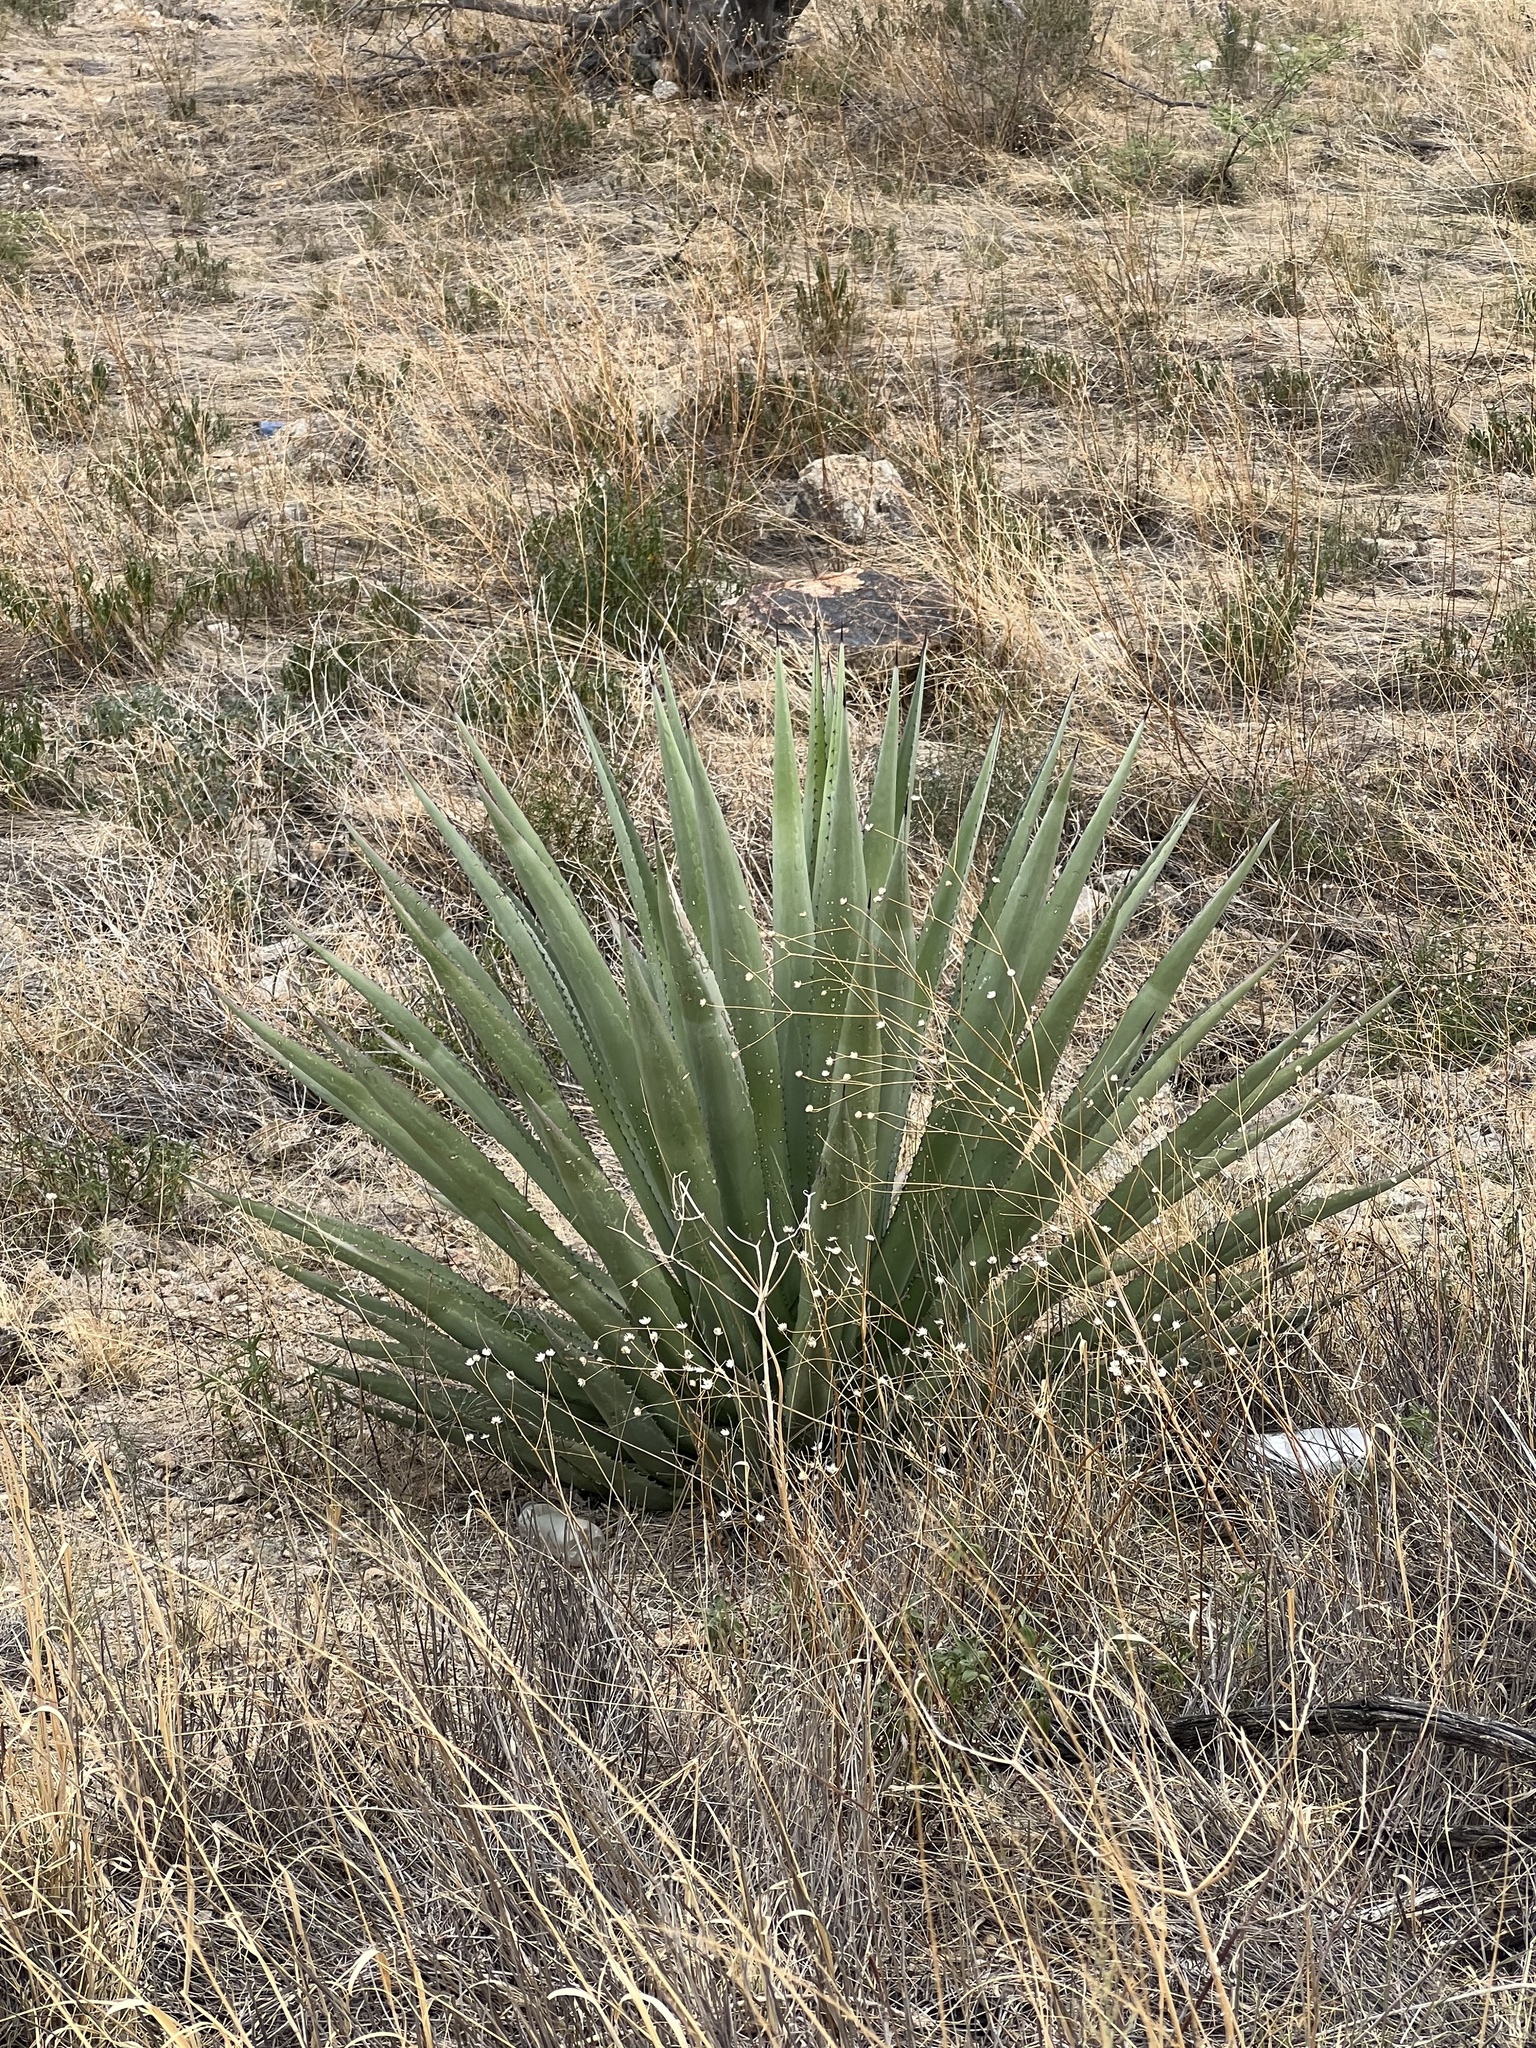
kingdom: Plantae
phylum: Tracheophyta
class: Liliopsida
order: Asparagales
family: Asparagaceae
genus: Agave
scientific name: Agave palmeri
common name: Palmer agave
